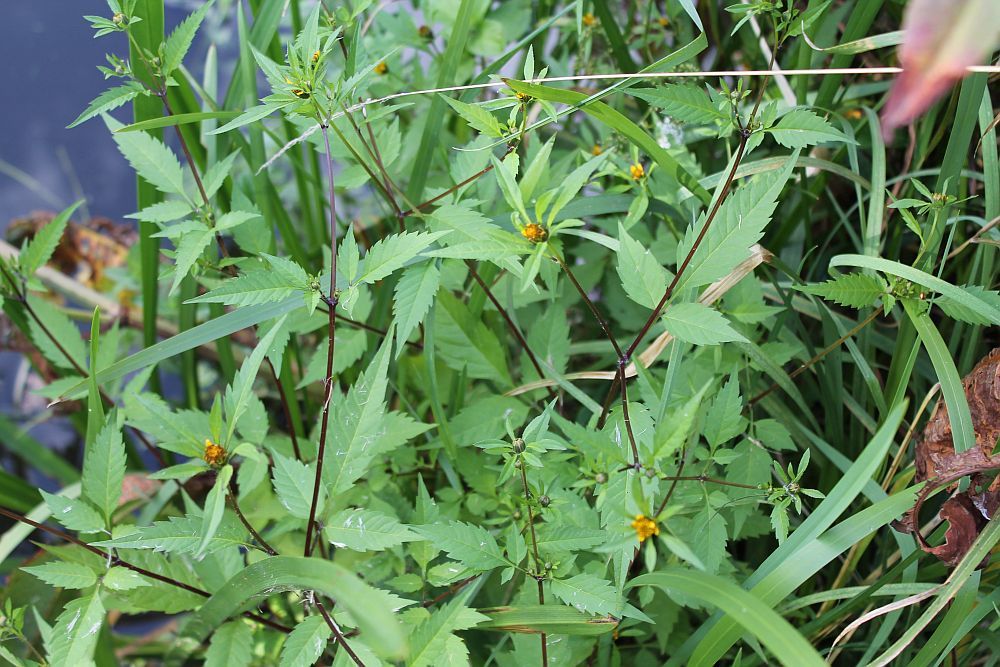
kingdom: Plantae
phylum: Tracheophyta
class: Magnoliopsida
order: Asterales
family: Asteraceae
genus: Bidens
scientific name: Bidens frondosa
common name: Beggarticks
